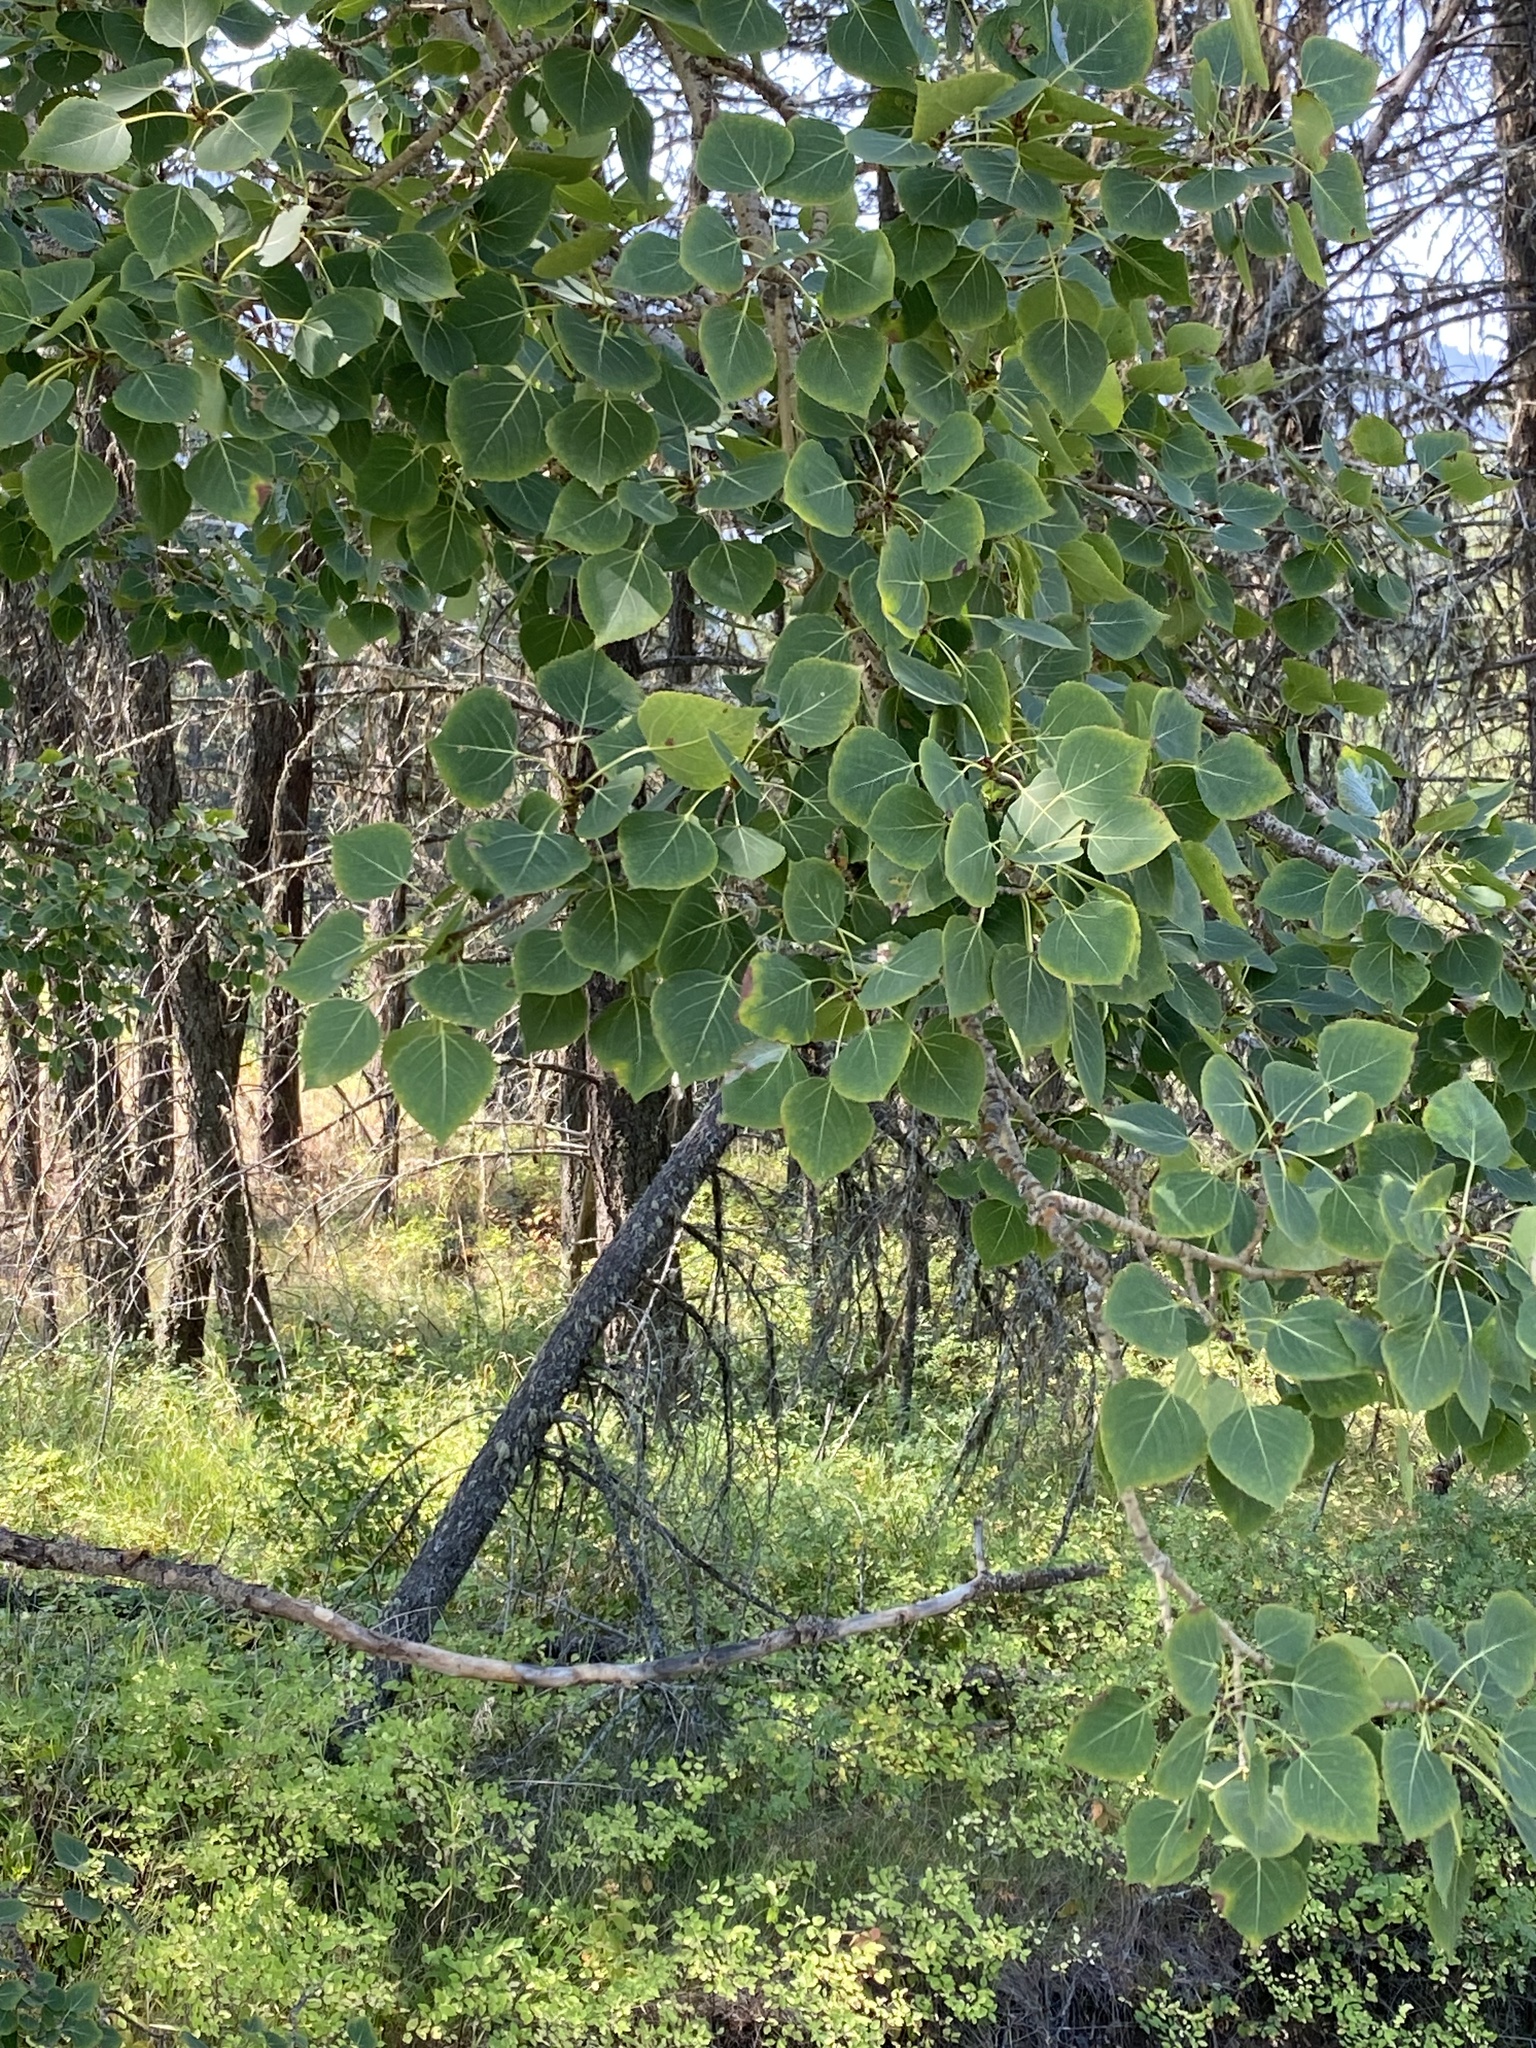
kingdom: Plantae
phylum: Tracheophyta
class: Magnoliopsida
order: Malpighiales
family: Salicaceae
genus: Populus
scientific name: Populus tremuloides
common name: Quaking aspen
